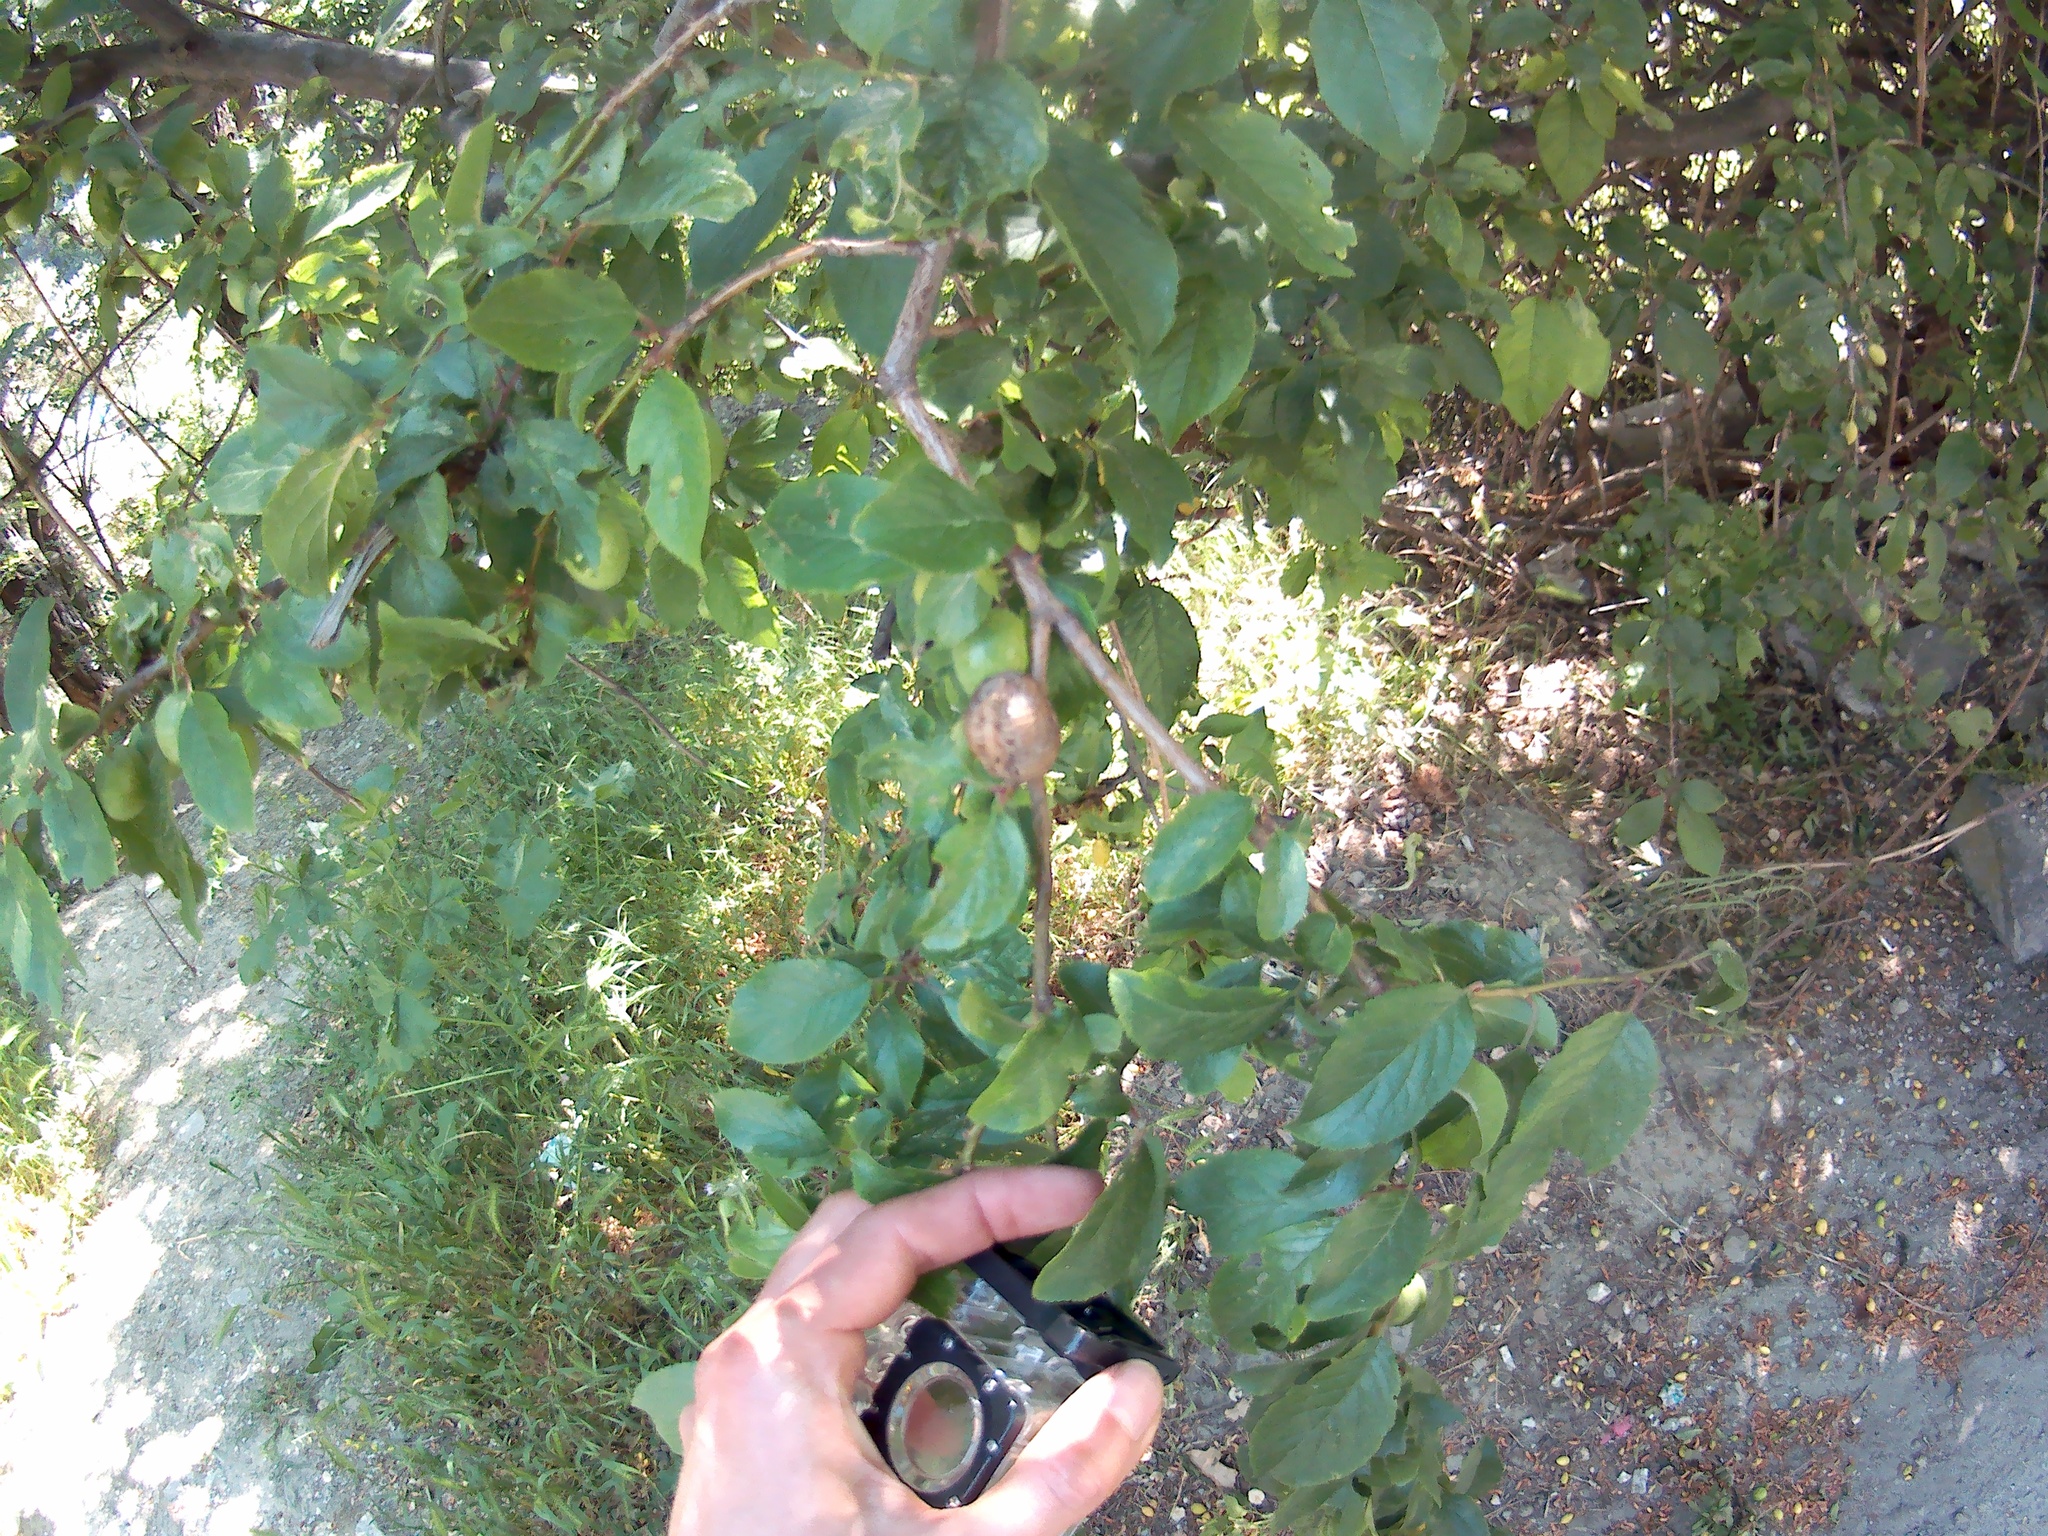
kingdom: Animalia
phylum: Arthropoda
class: Insecta
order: Mantodea
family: Mantidae
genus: Hierodula
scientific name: Hierodula transcaucasica
